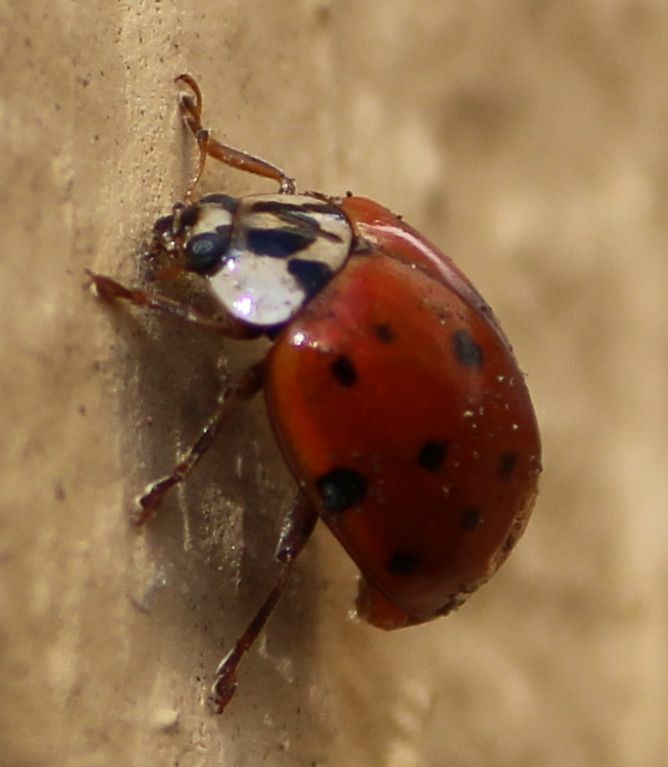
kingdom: Animalia
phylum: Arthropoda
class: Insecta
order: Coleoptera
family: Coccinellidae
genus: Harmonia
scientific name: Harmonia axyridis
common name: Harlequin ladybird
